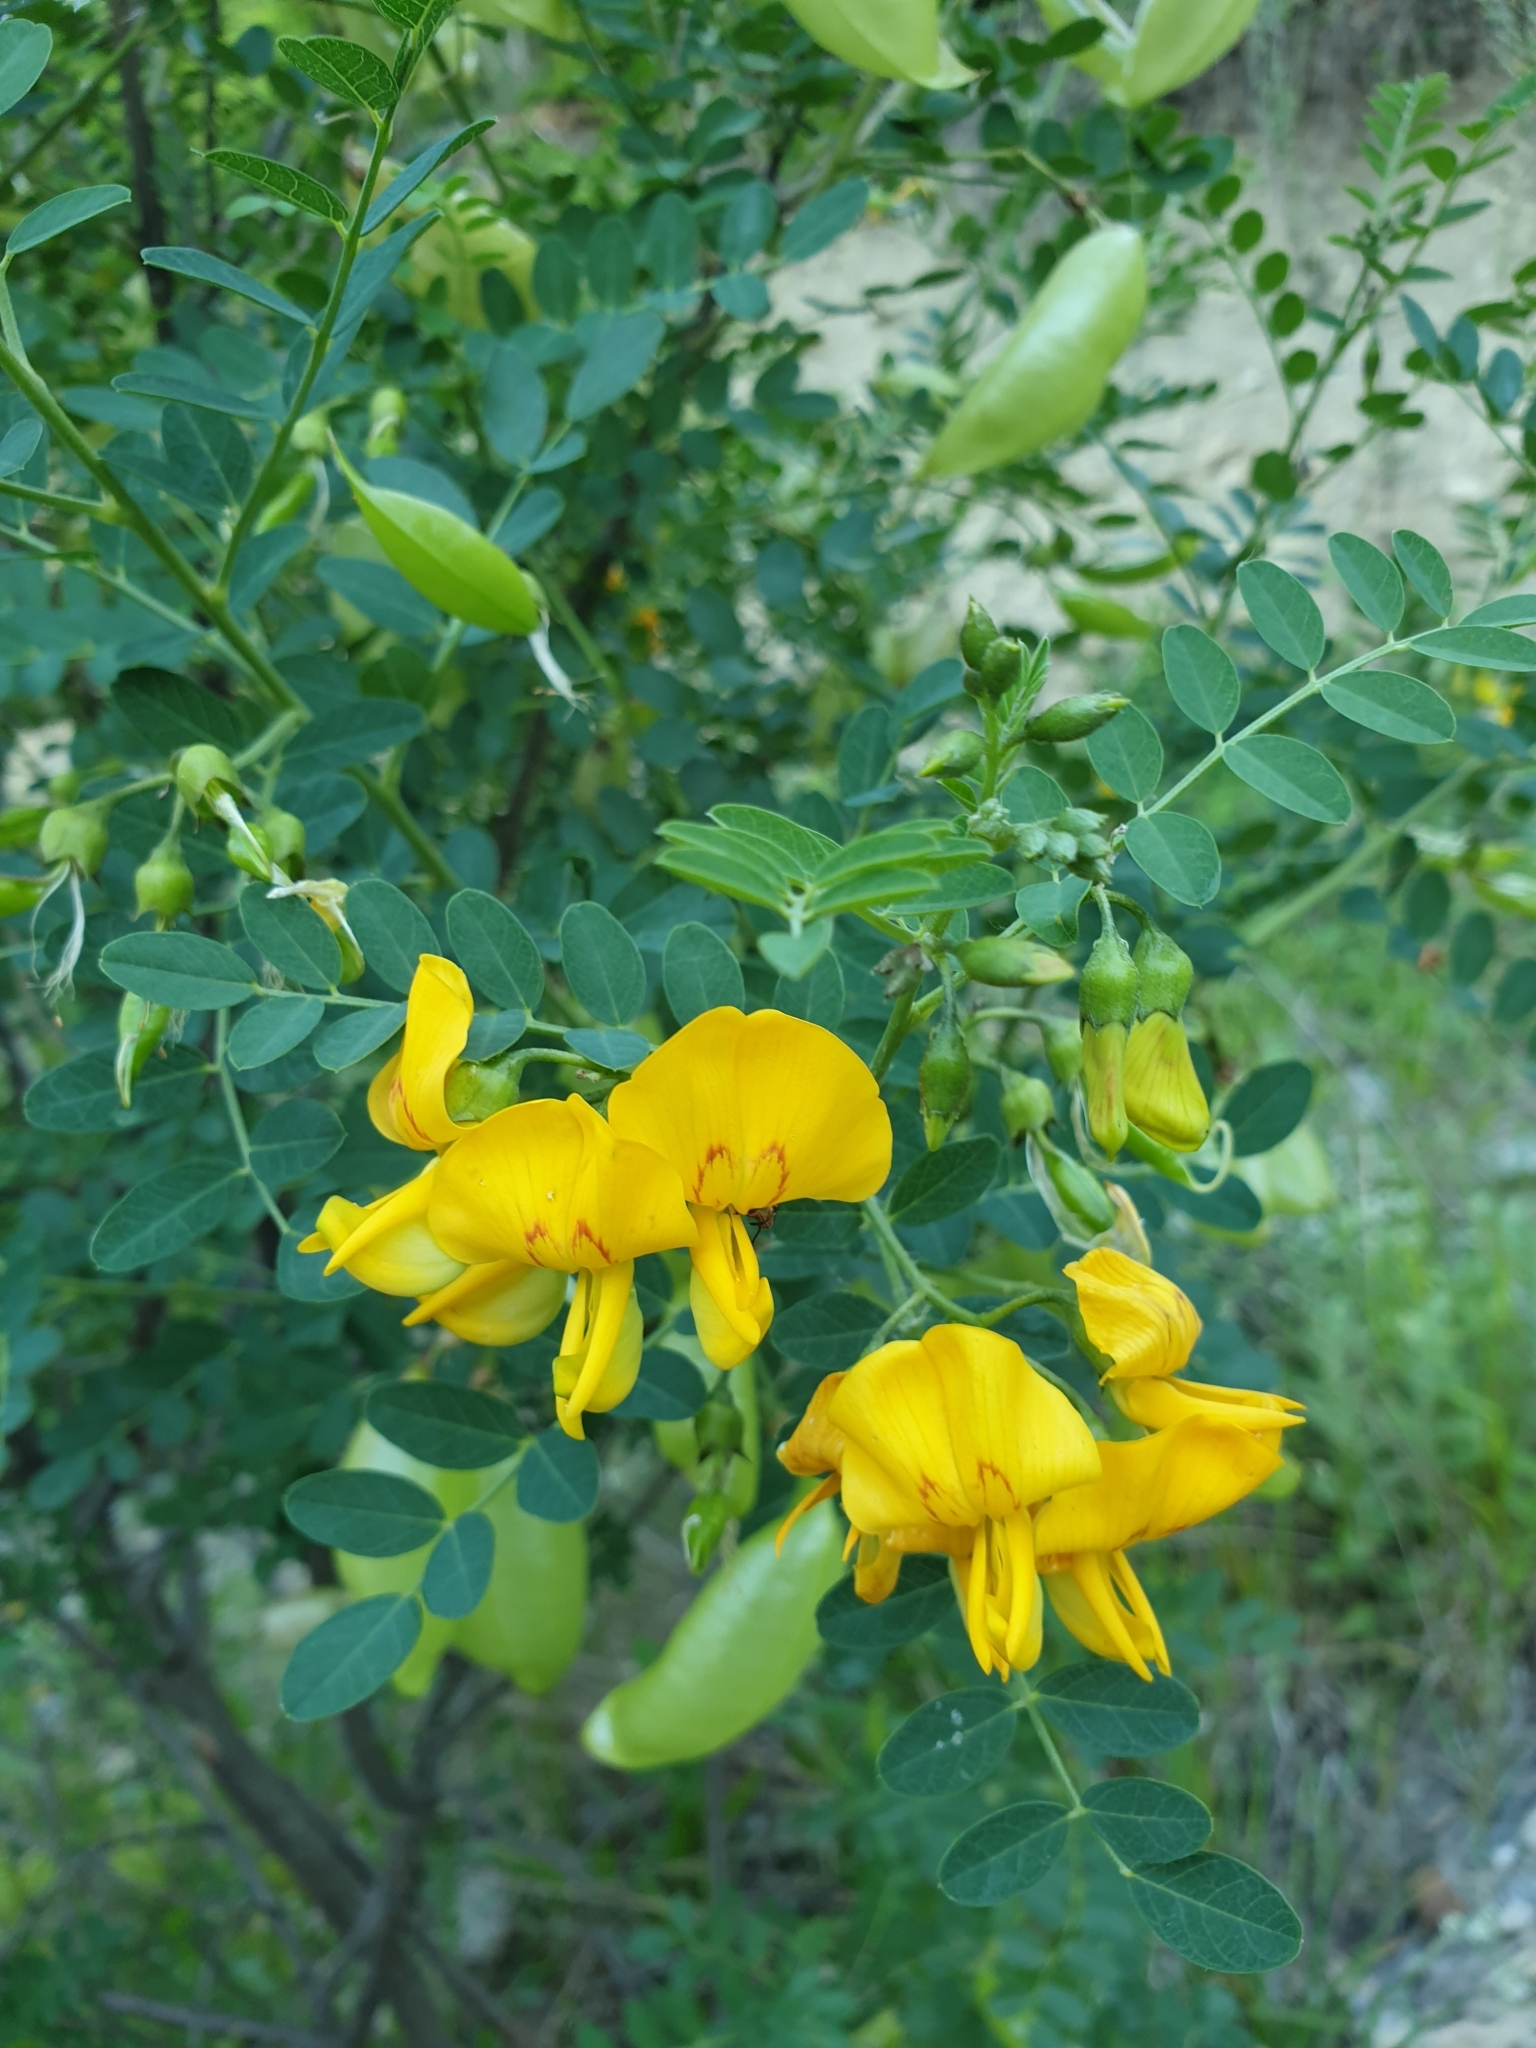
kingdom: Plantae
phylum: Tracheophyta
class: Magnoliopsida
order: Fabales
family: Fabaceae
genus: Colutea
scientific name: Colutea cilicica
